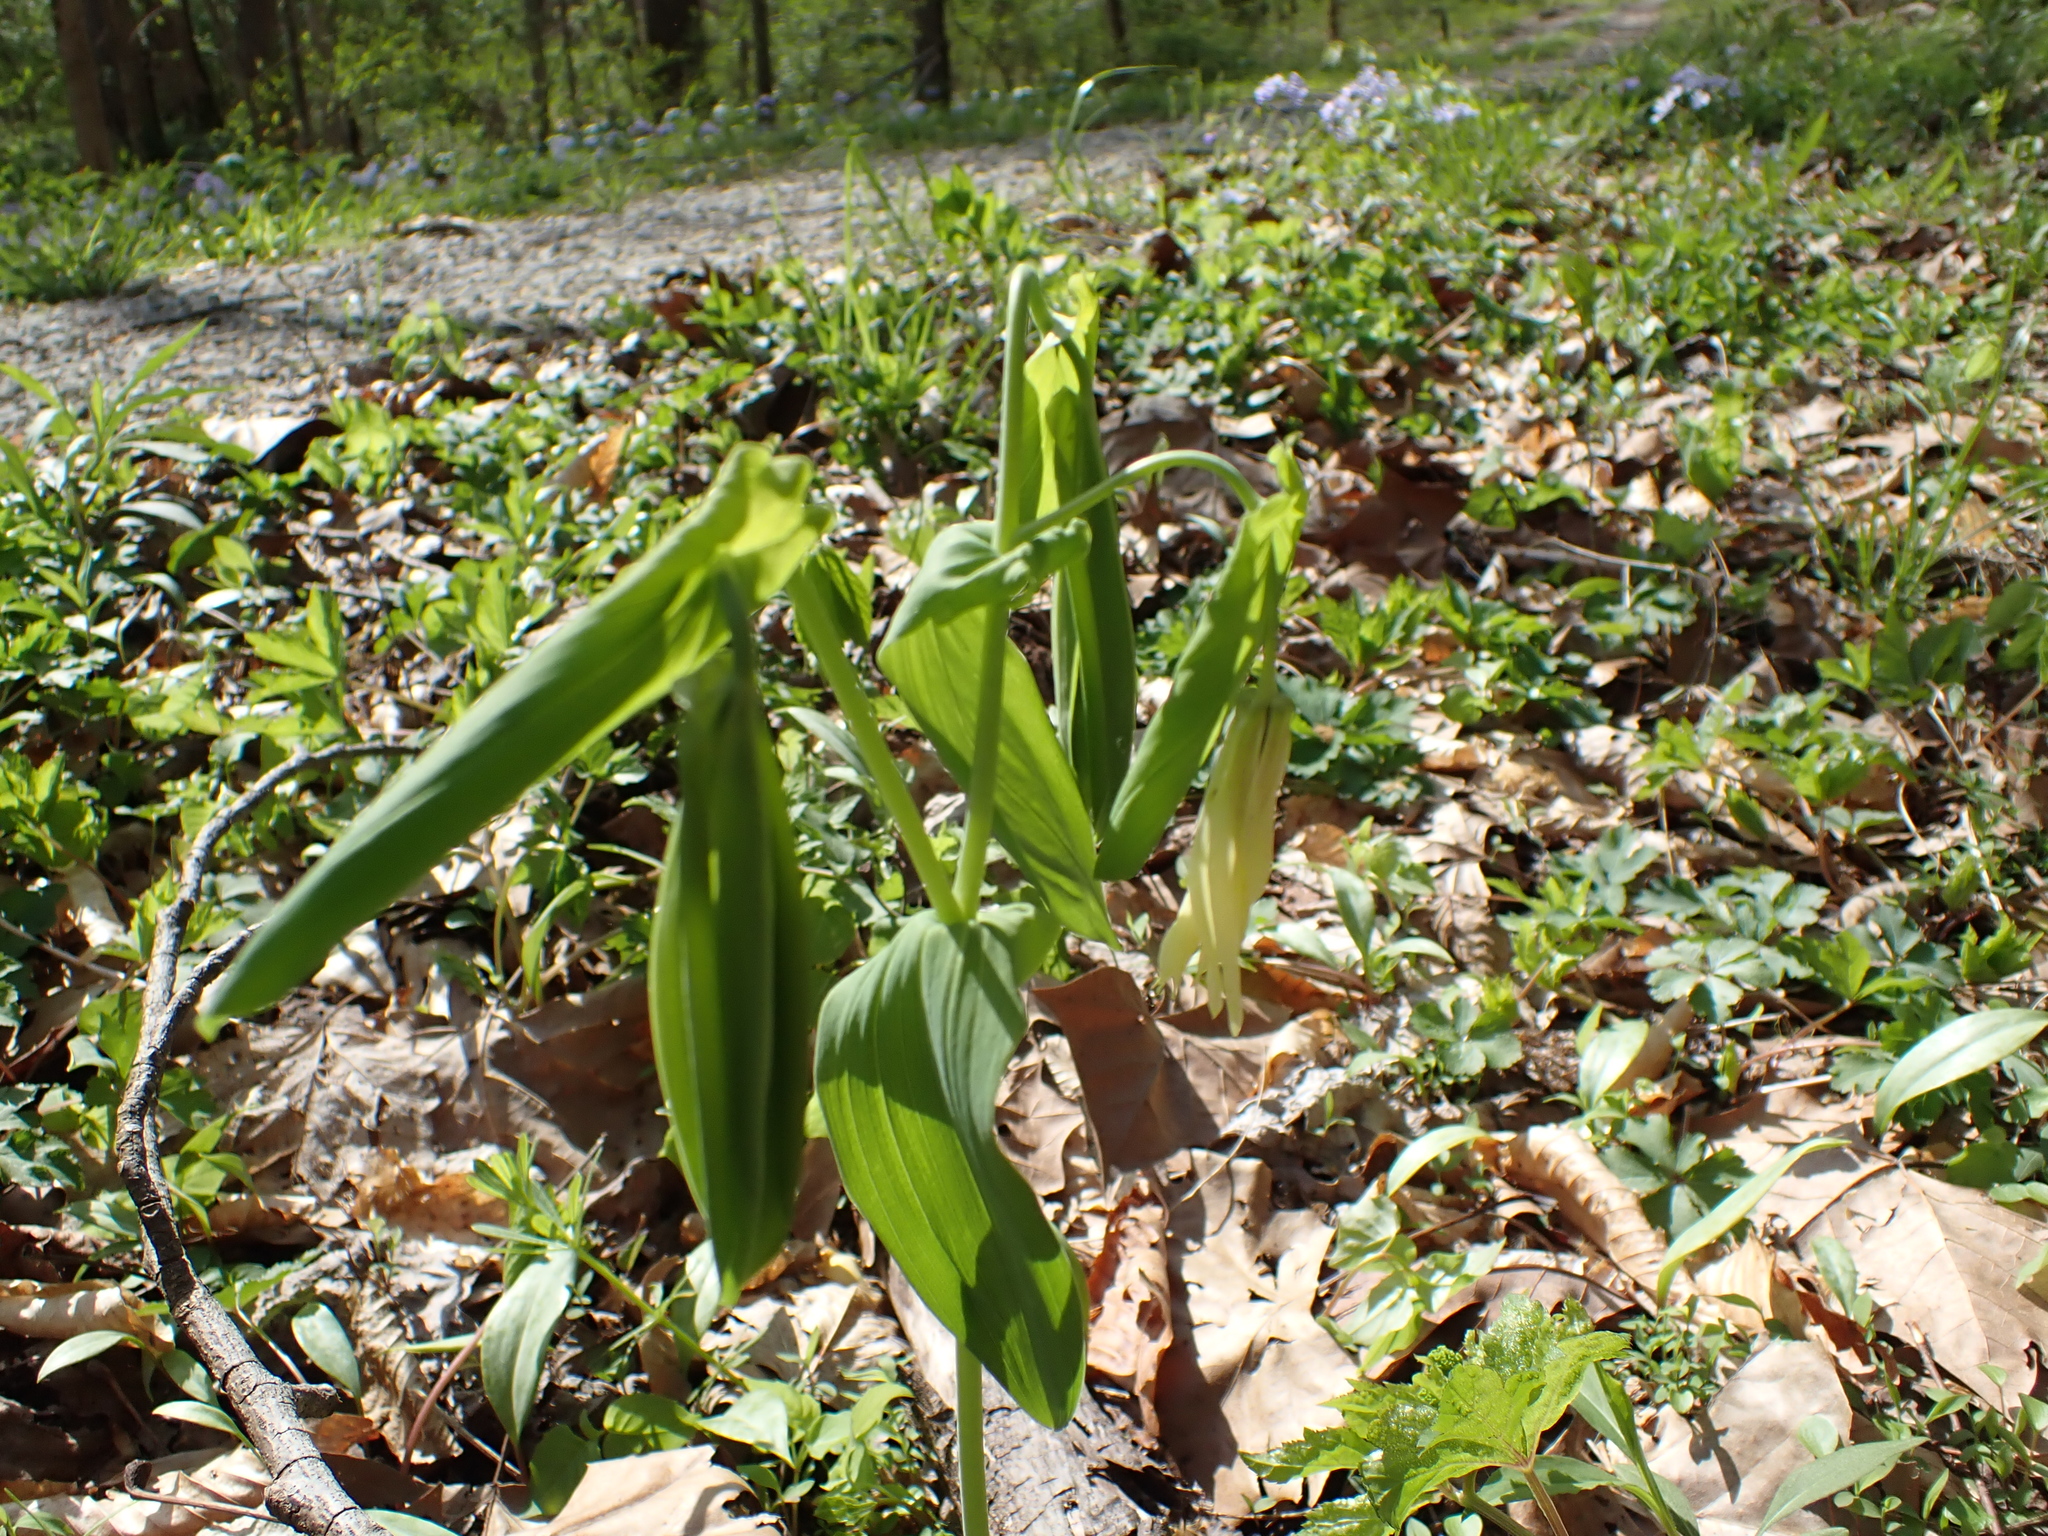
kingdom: Plantae
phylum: Tracheophyta
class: Liliopsida
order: Liliales
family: Colchicaceae
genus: Uvularia
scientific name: Uvularia grandiflora
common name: Bellwort
